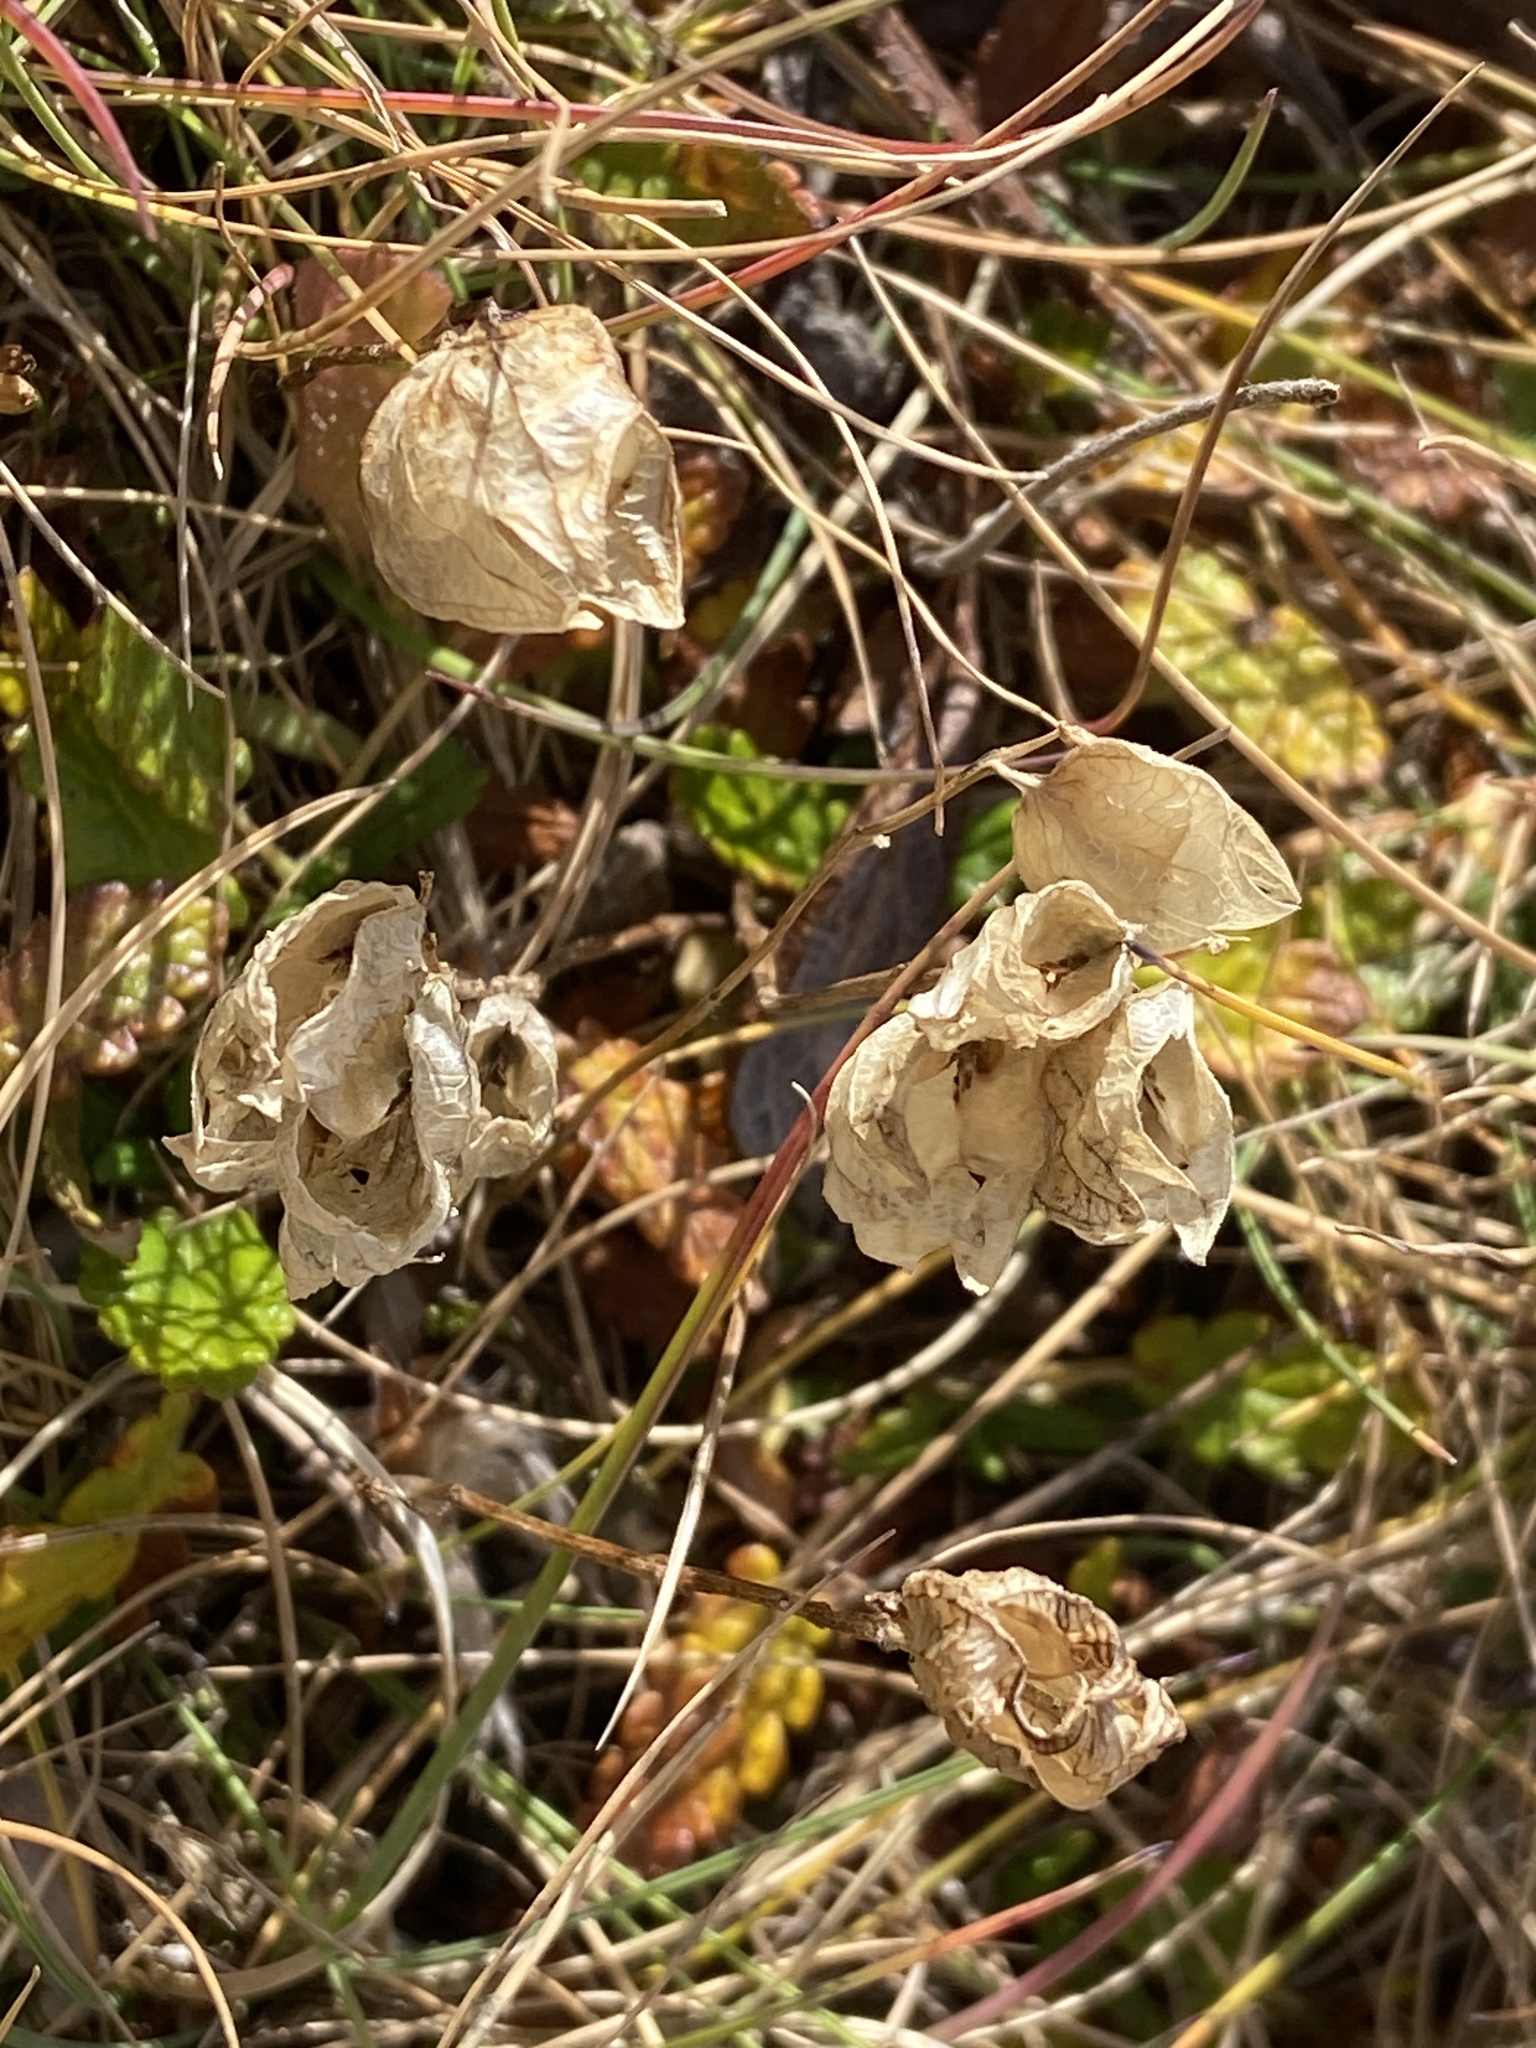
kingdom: Plantae
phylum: Tracheophyta
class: Magnoliopsida
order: Caryophyllales
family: Caryophyllaceae
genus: Silene
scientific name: Silene vulgaris
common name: Bladder campion
